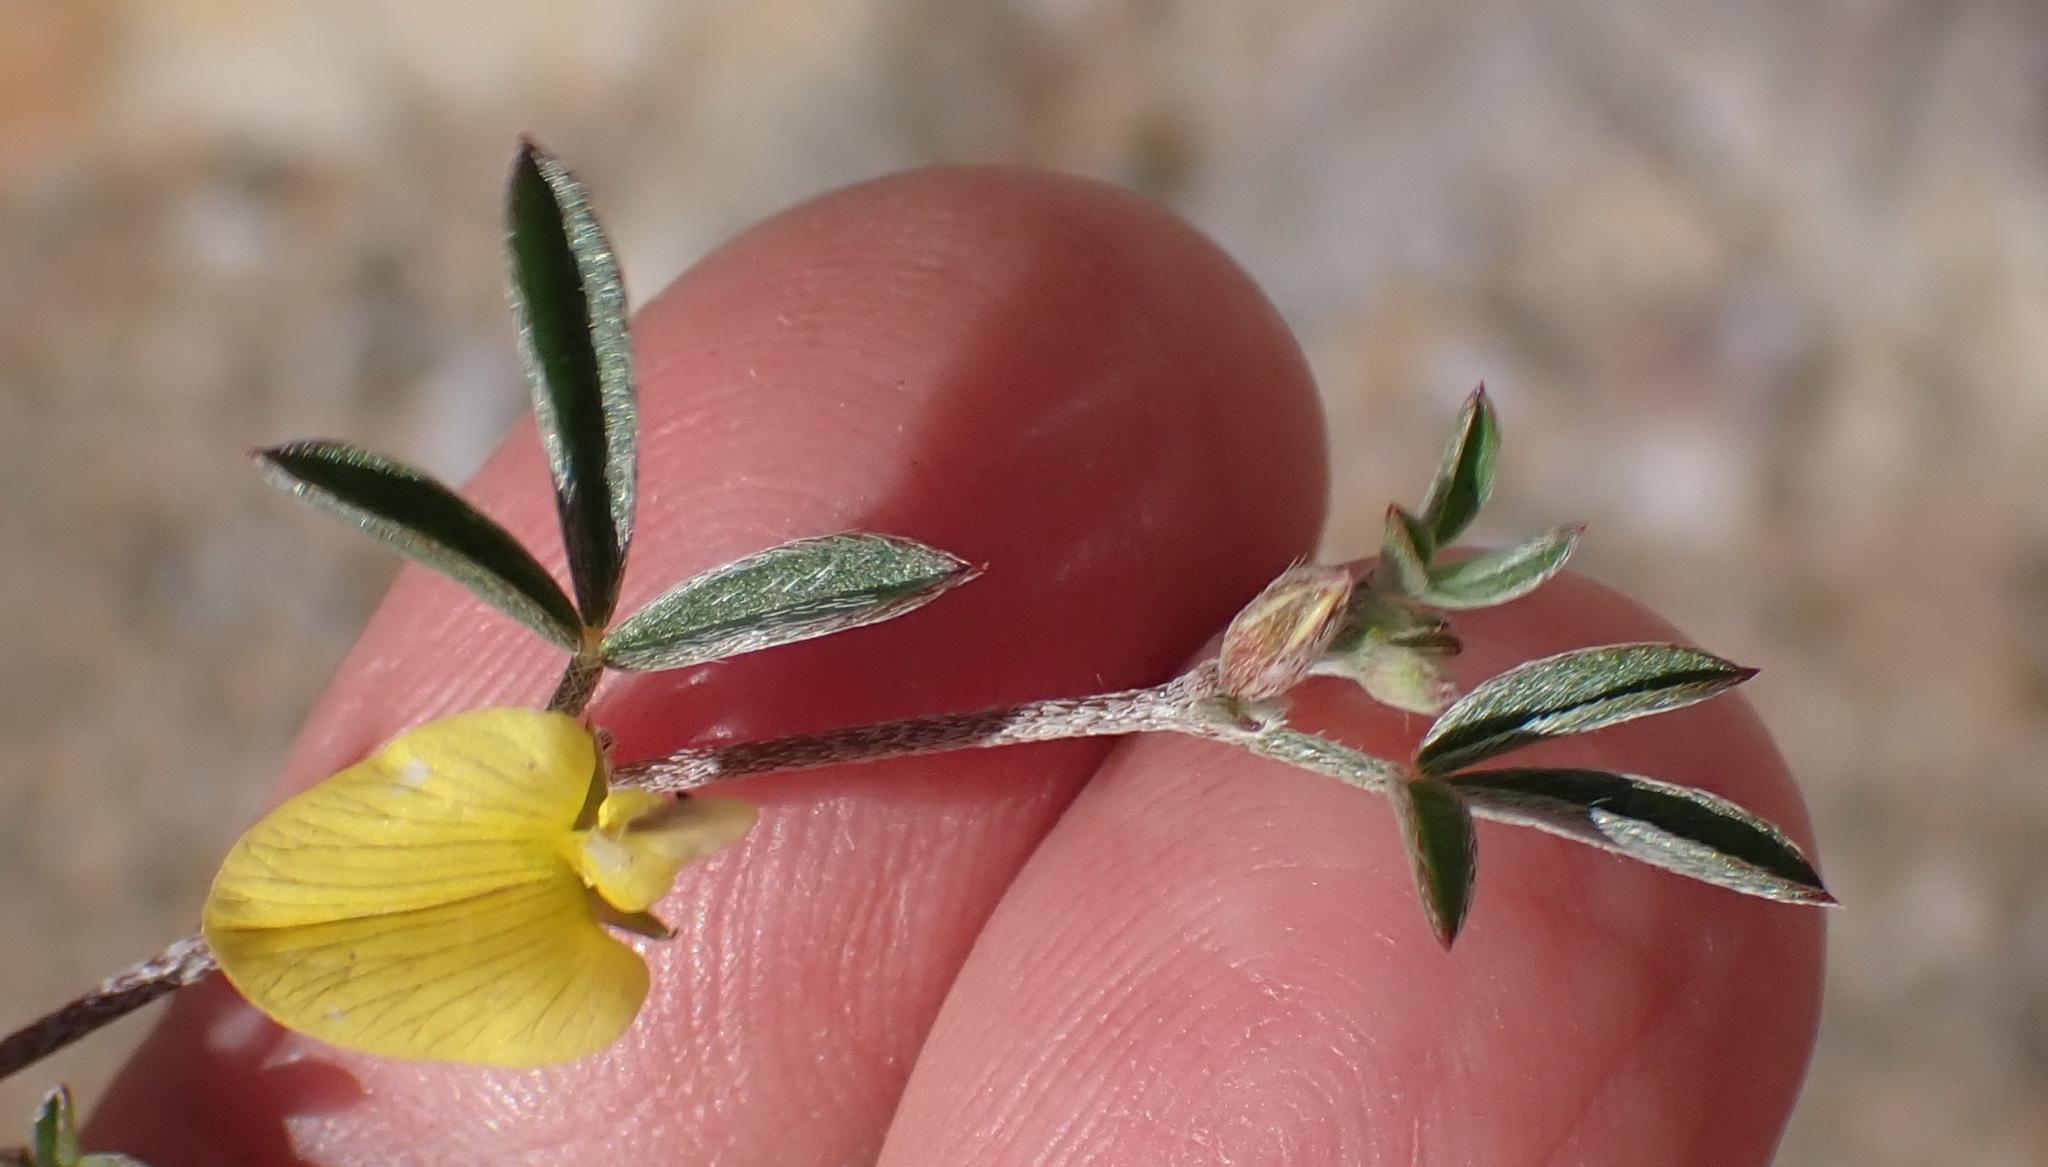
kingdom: Plantae
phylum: Tracheophyta
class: Magnoliopsida
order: Fabales
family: Fabaceae
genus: Lotononis
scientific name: Lotononis tenella
